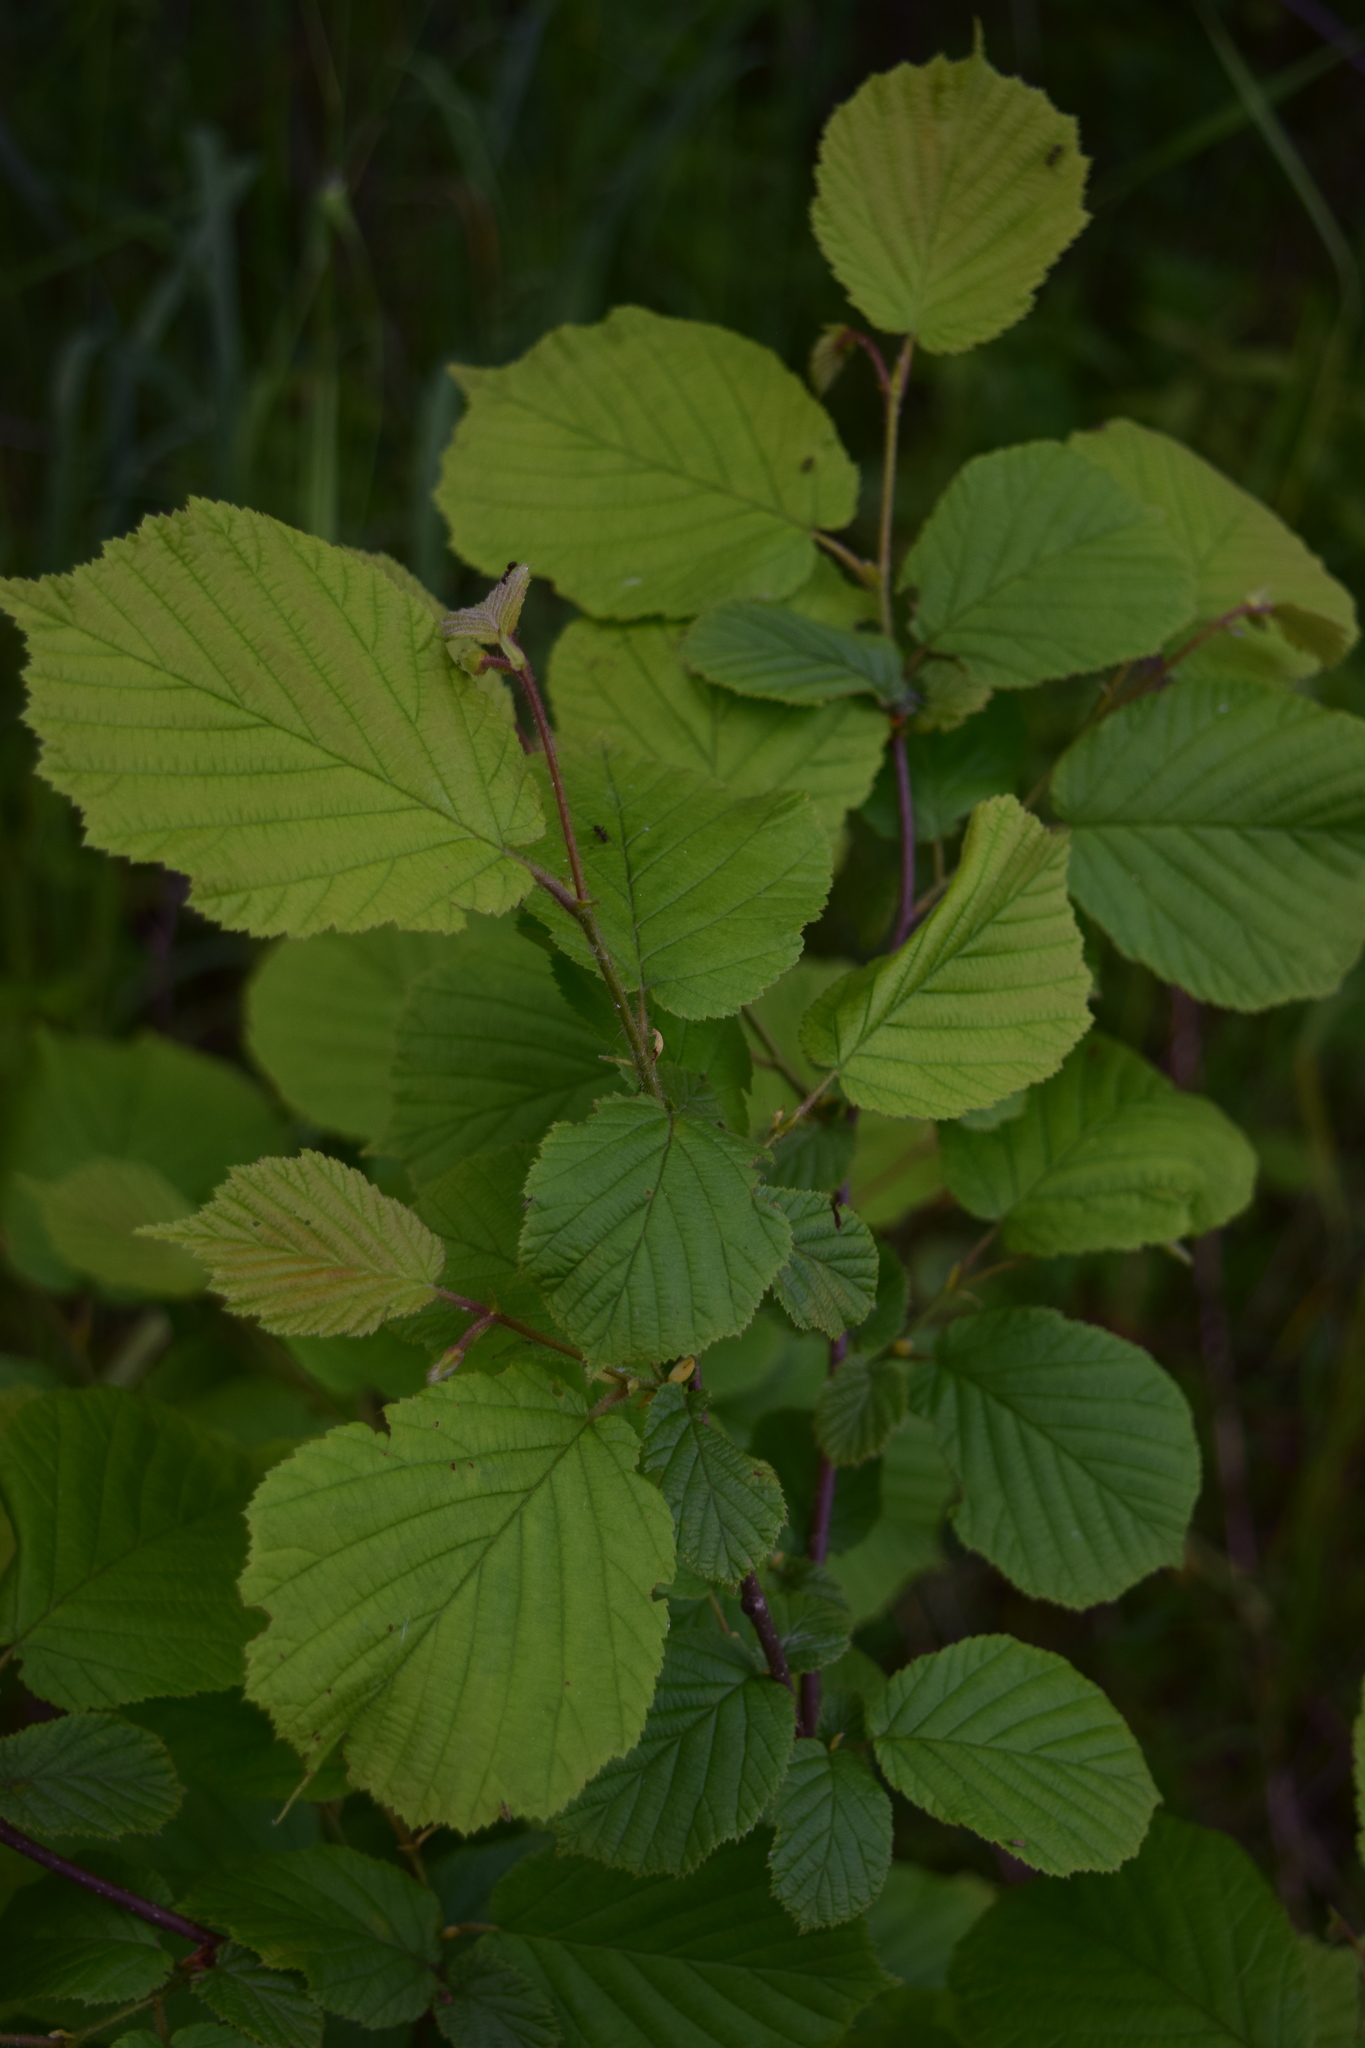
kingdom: Plantae
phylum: Tracheophyta
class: Magnoliopsida
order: Fagales
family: Betulaceae
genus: Corylus
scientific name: Corylus avellana
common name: European hazel
